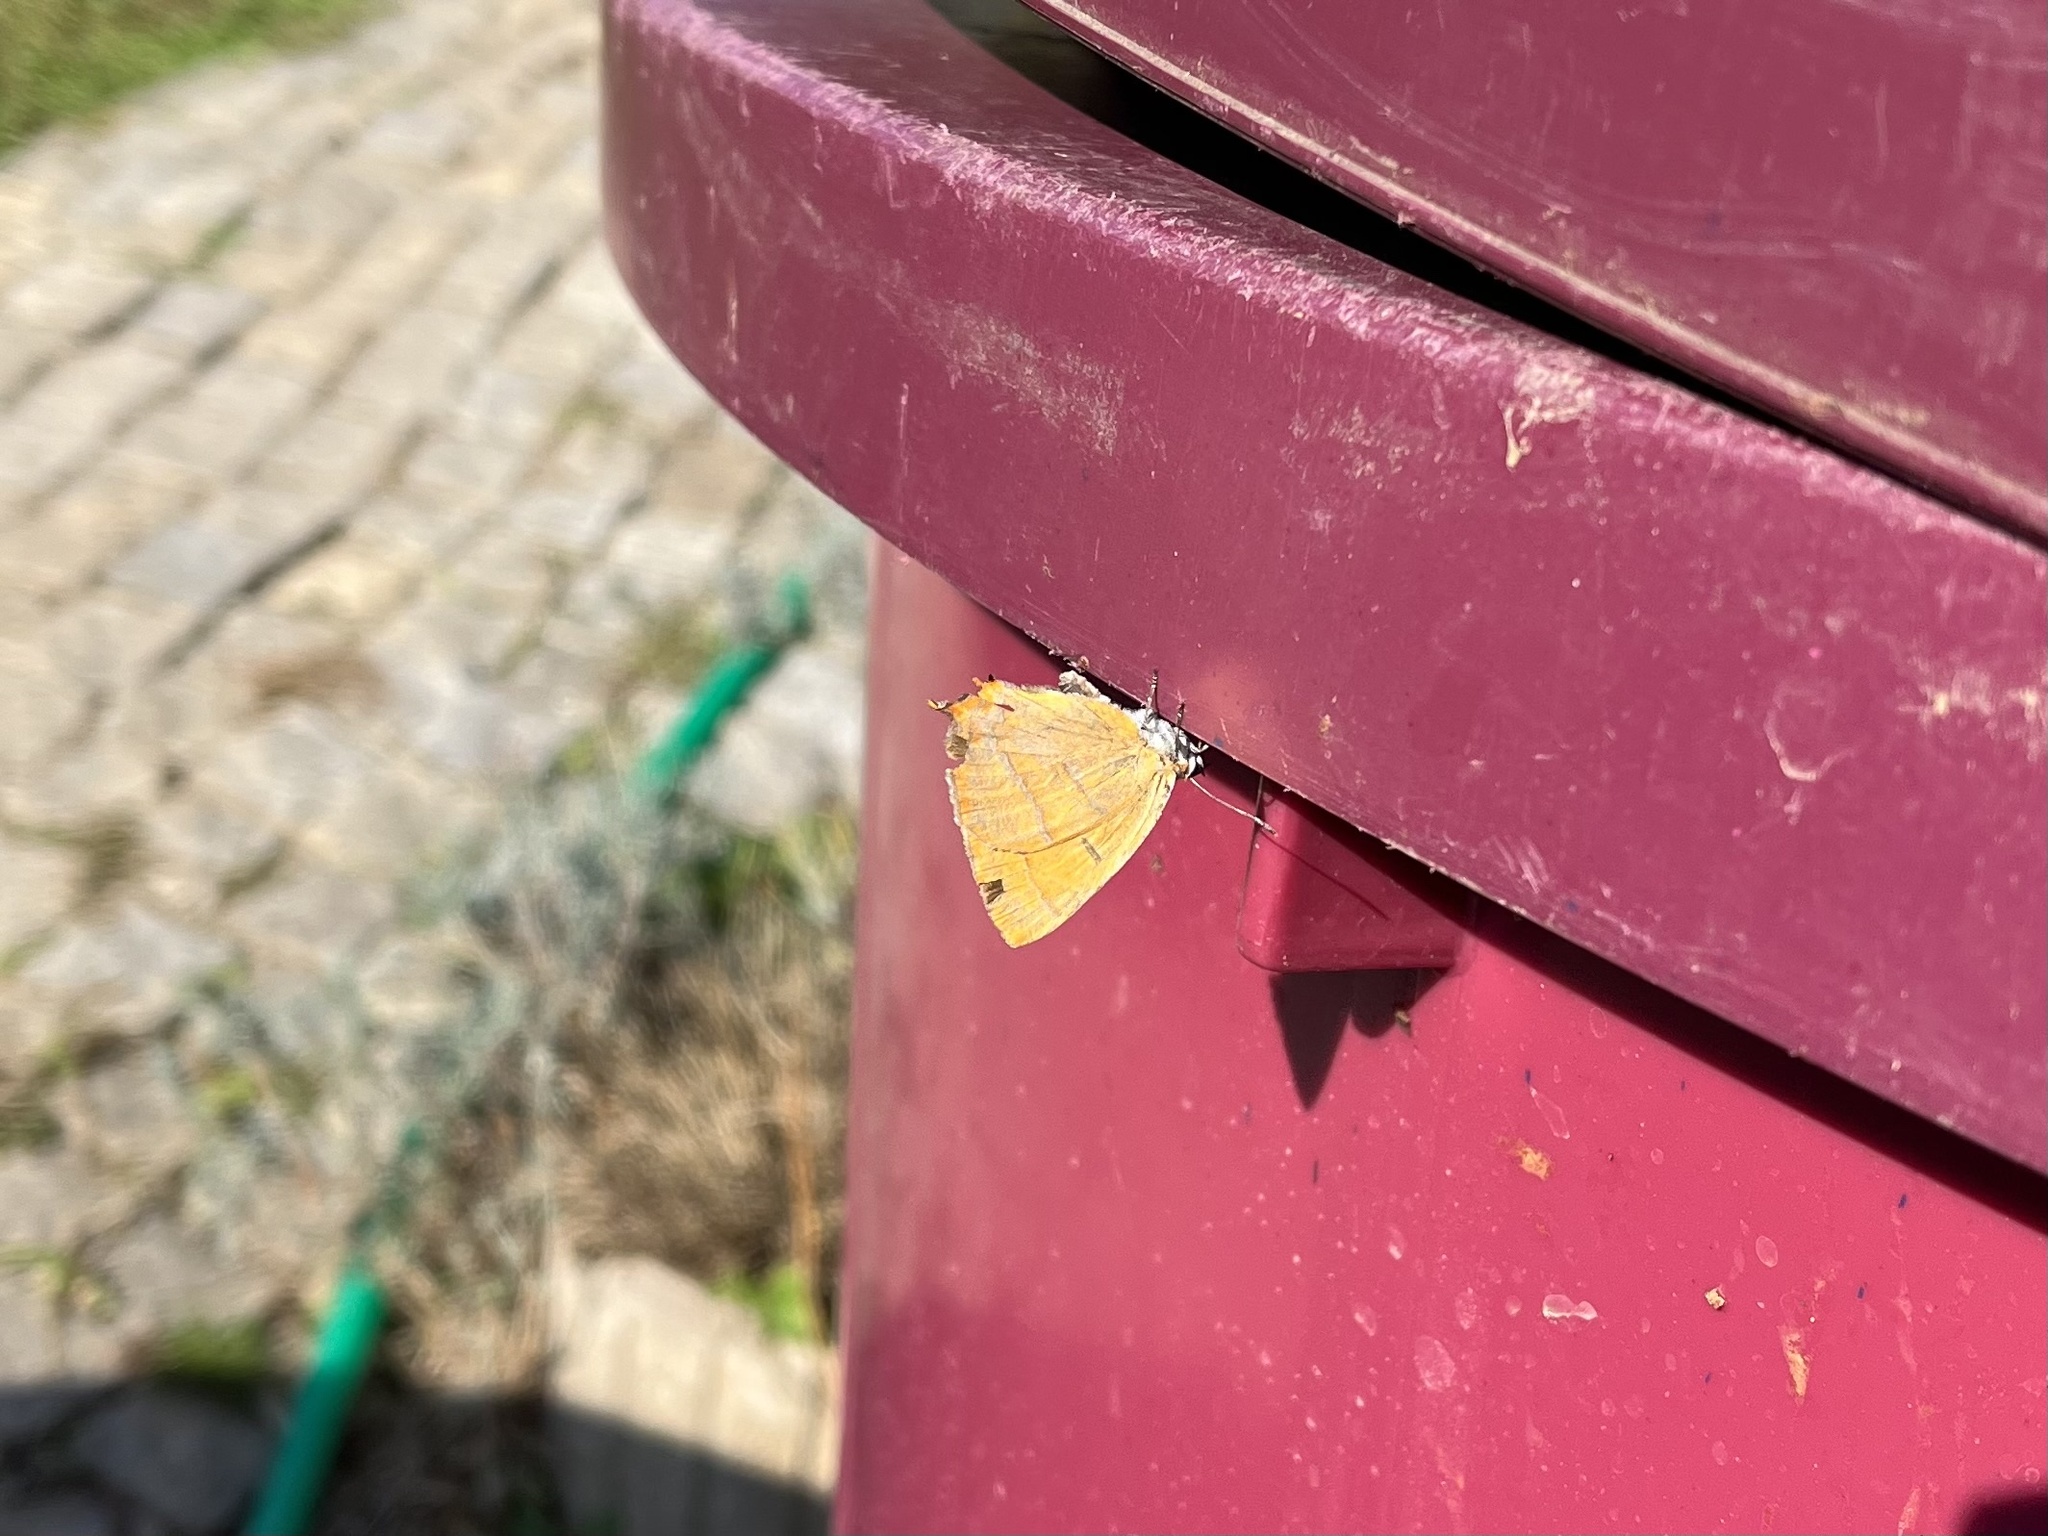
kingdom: Animalia
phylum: Arthropoda
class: Insecta
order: Lepidoptera
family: Lycaenidae
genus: Thecla
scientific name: Thecla betulae
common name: Brown hairstreak
